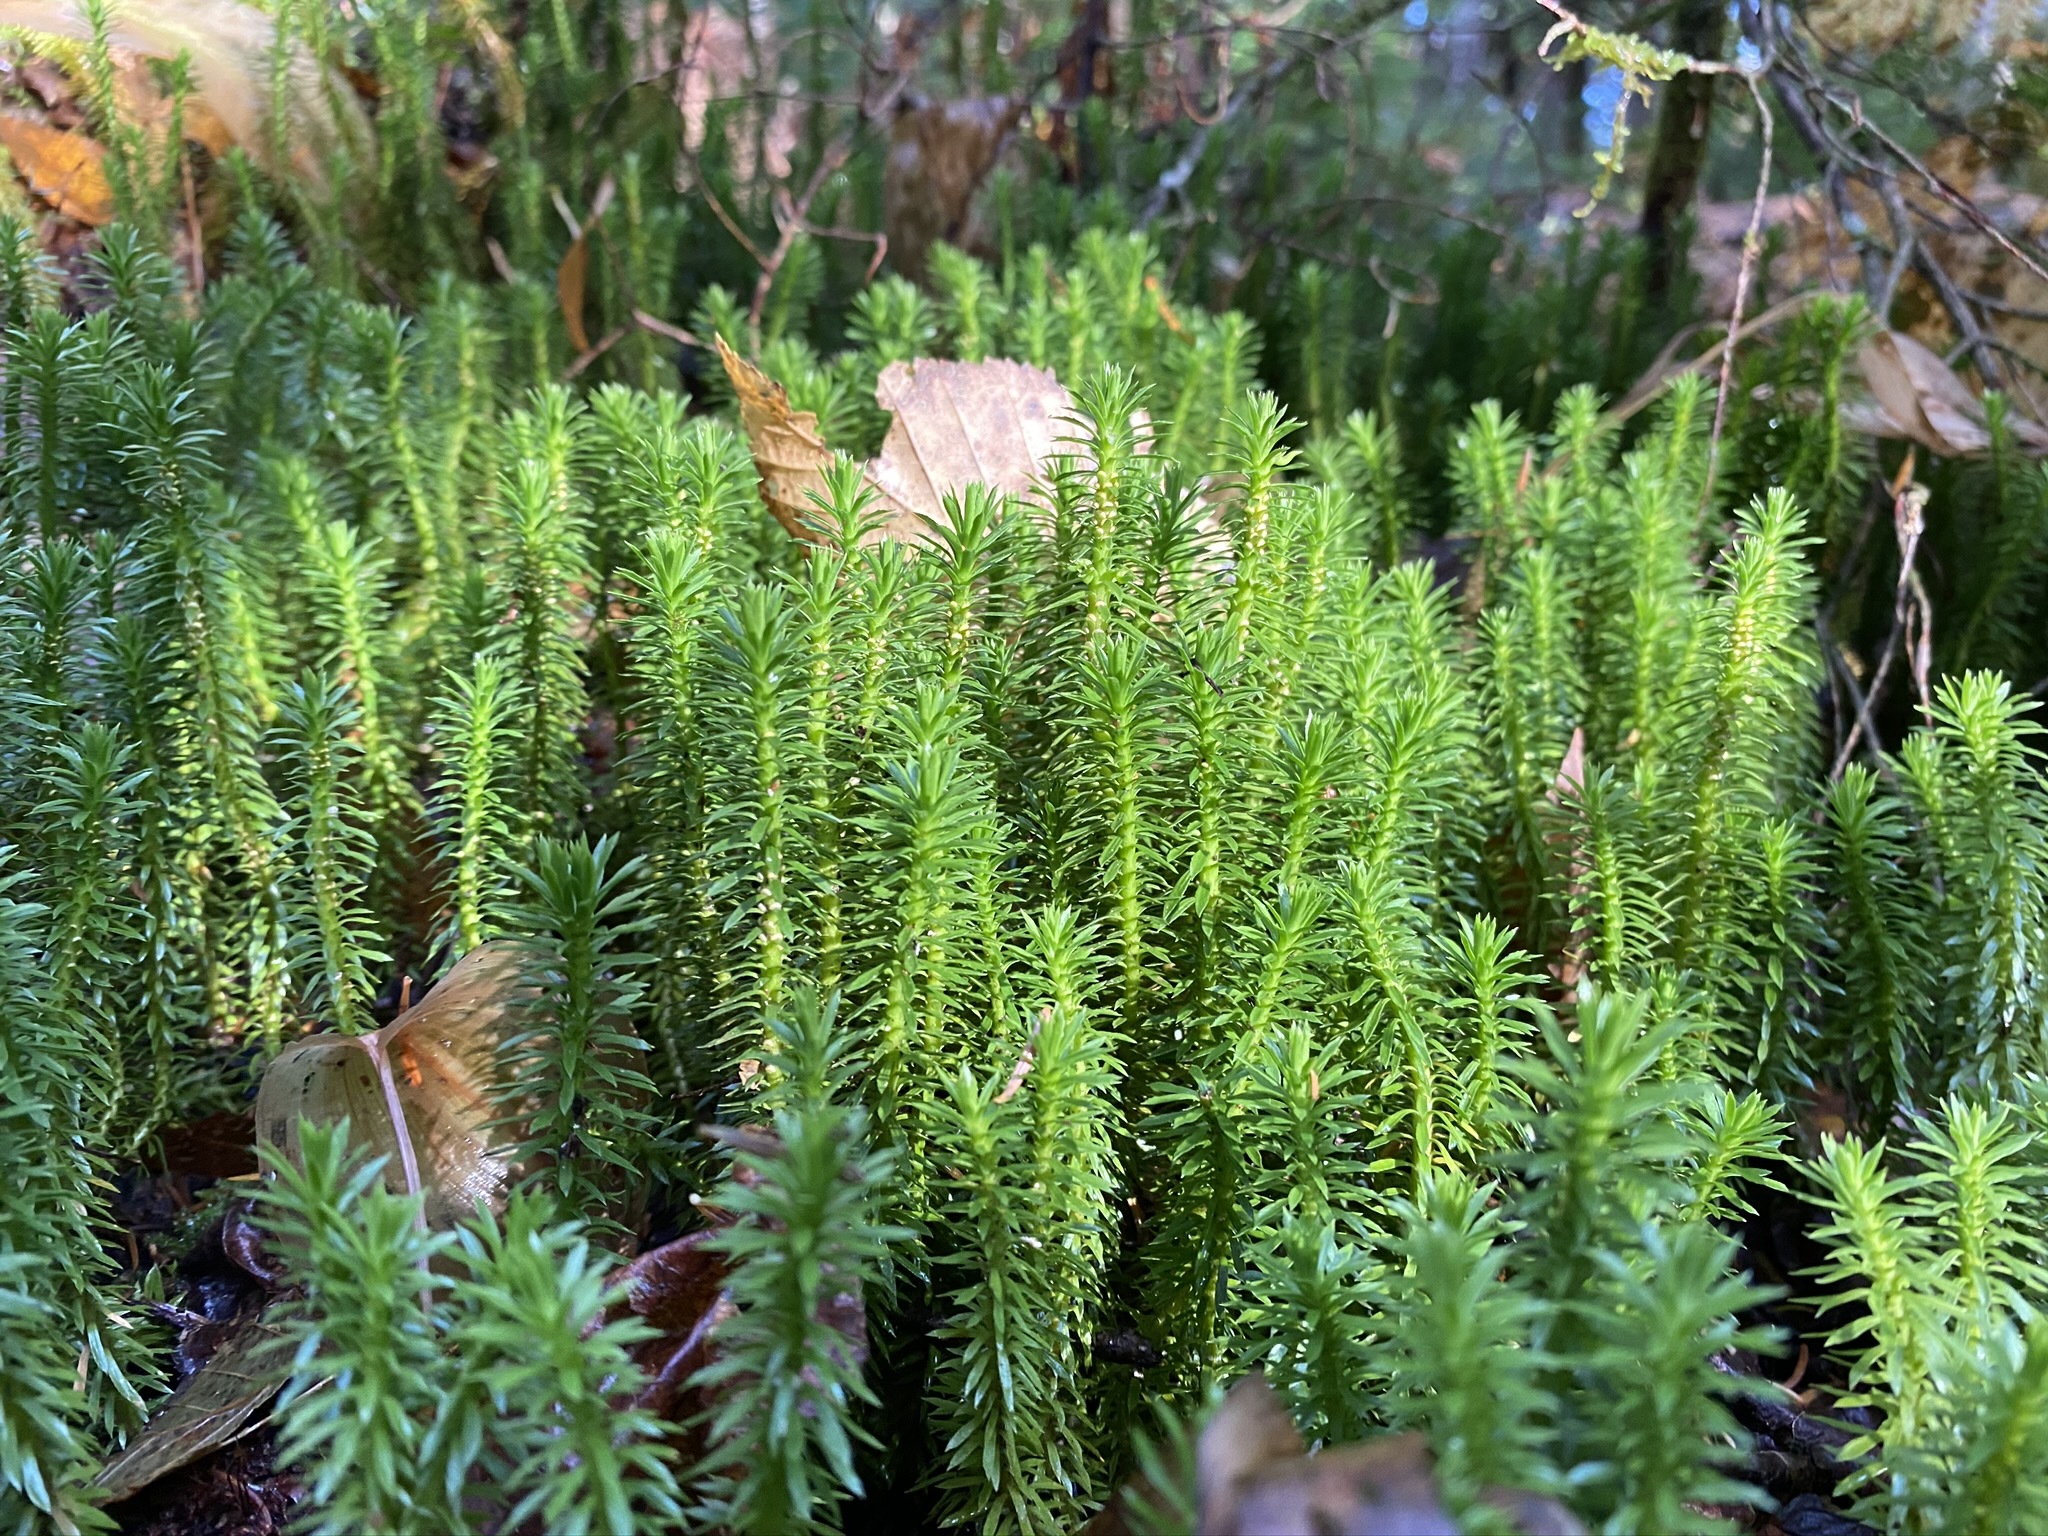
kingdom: Plantae
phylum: Tracheophyta
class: Lycopodiopsida
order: Lycopodiales
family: Lycopodiaceae
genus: Huperzia
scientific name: Huperzia lucidula
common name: Shining clubmoss
